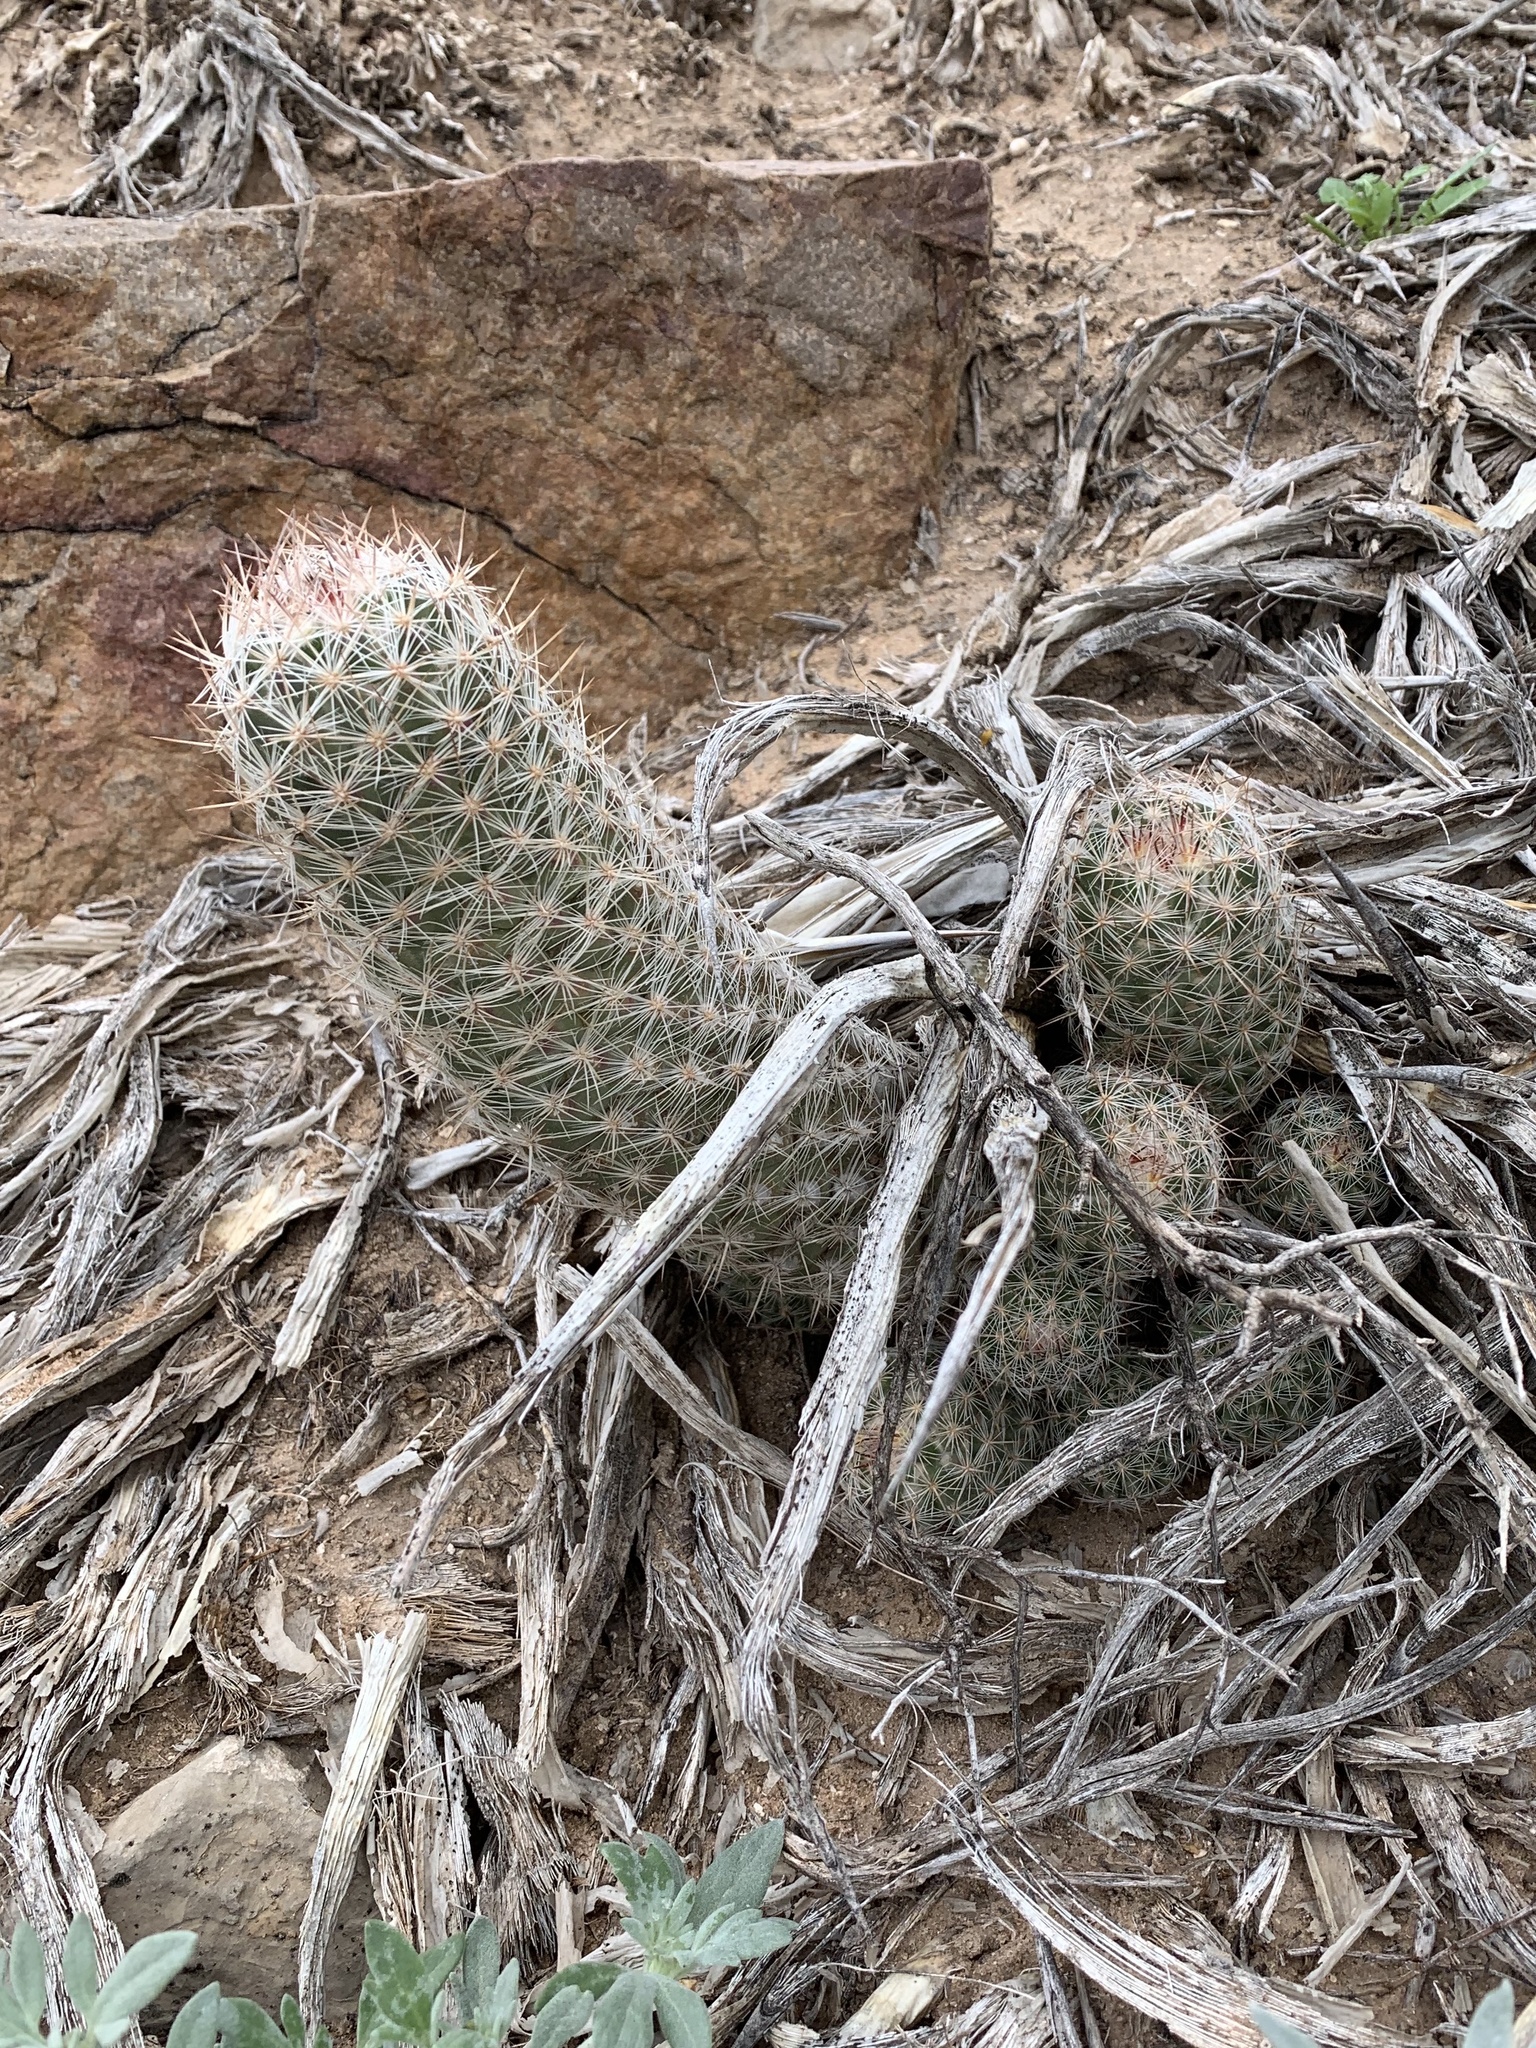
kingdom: Plantae
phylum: Tracheophyta
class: Magnoliopsida
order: Caryophyllales
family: Cactaceae
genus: Pelecyphora
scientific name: Pelecyphora tuberculosa
